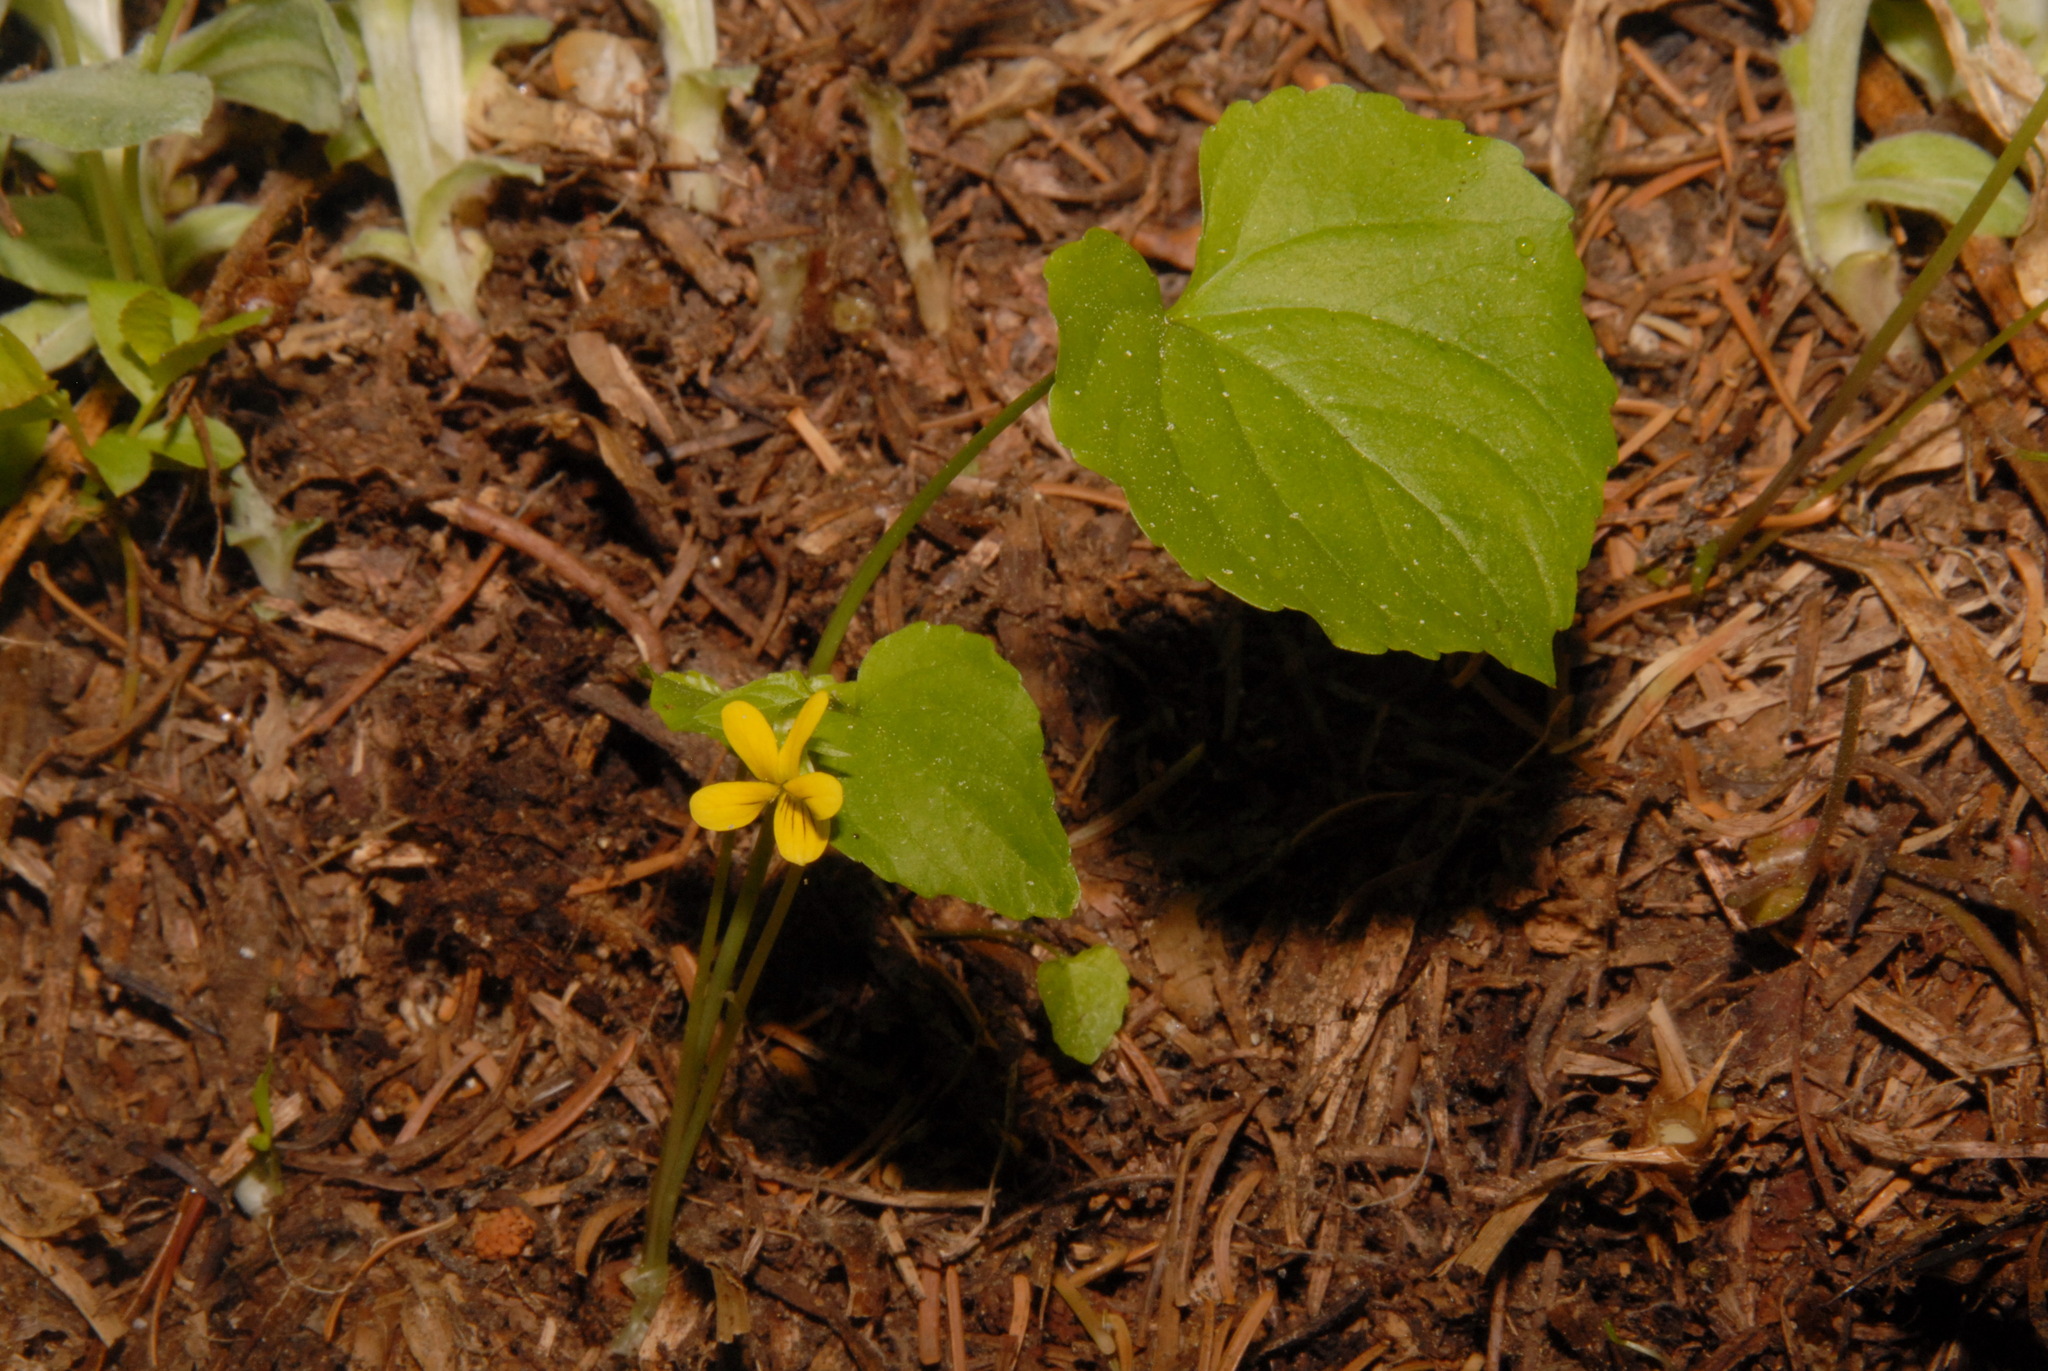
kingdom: Plantae
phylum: Tracheophyta
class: Magnoliopsida
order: Malpighiales
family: Violaceae
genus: Viola
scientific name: Viola glabella
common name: Stream violet
